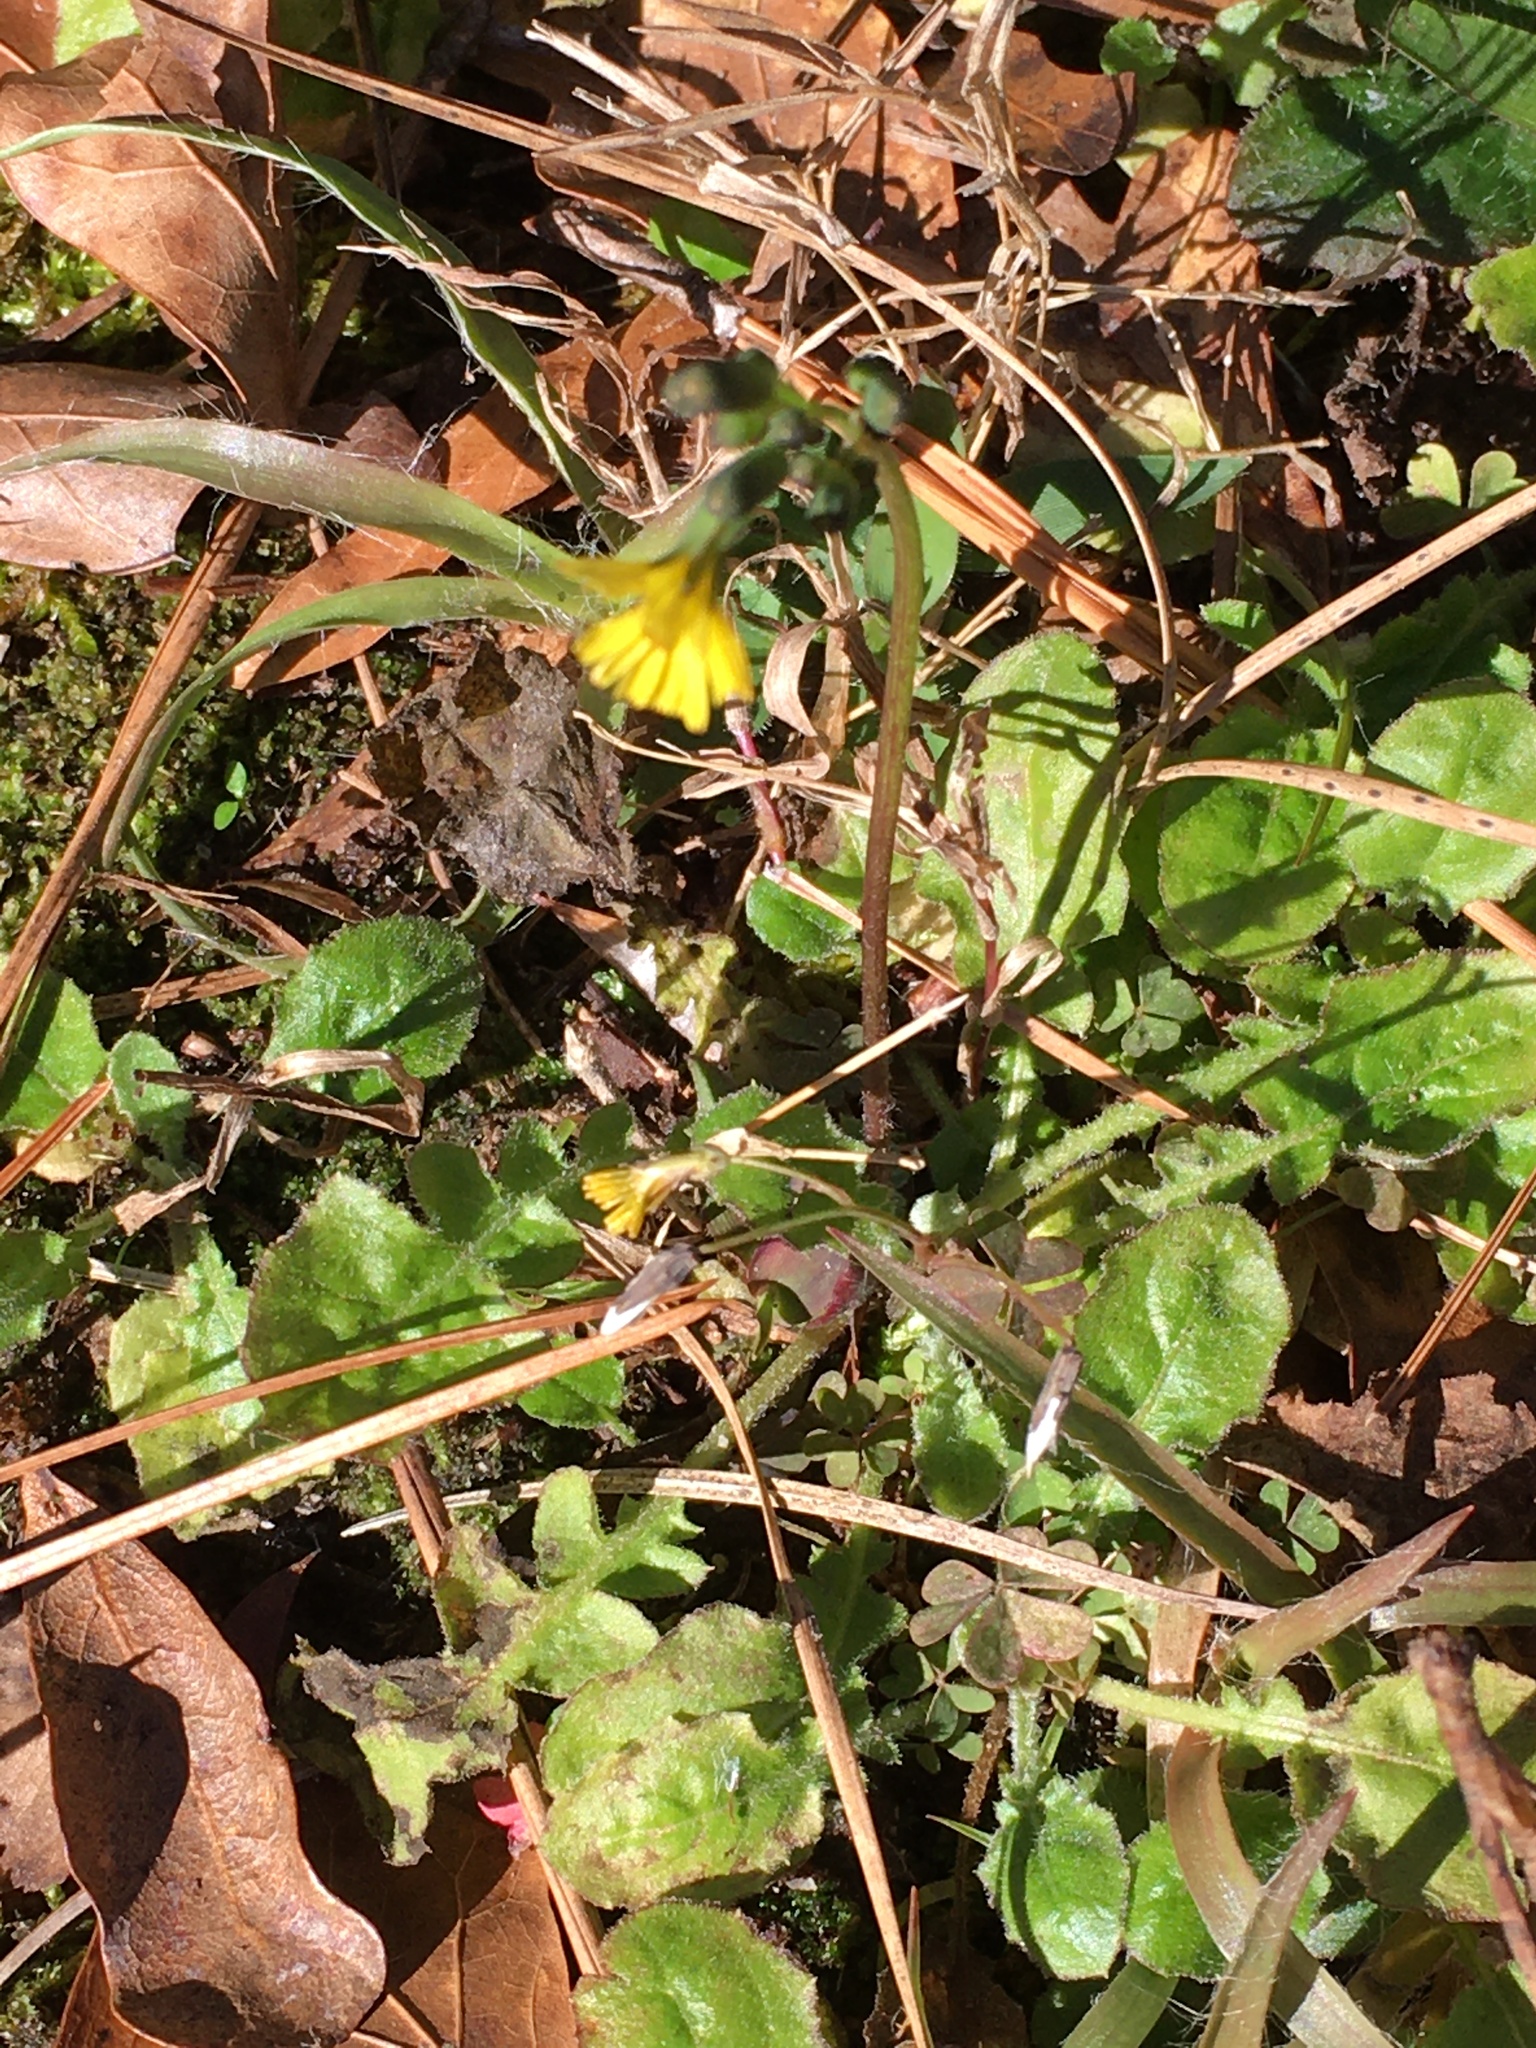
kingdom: Plantae
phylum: Tracheophyta
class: Magnoliopsida
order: Asterales
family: Asteraceae
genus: Youngia
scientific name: Youngia japonica
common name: Oriental false hawksbeard
